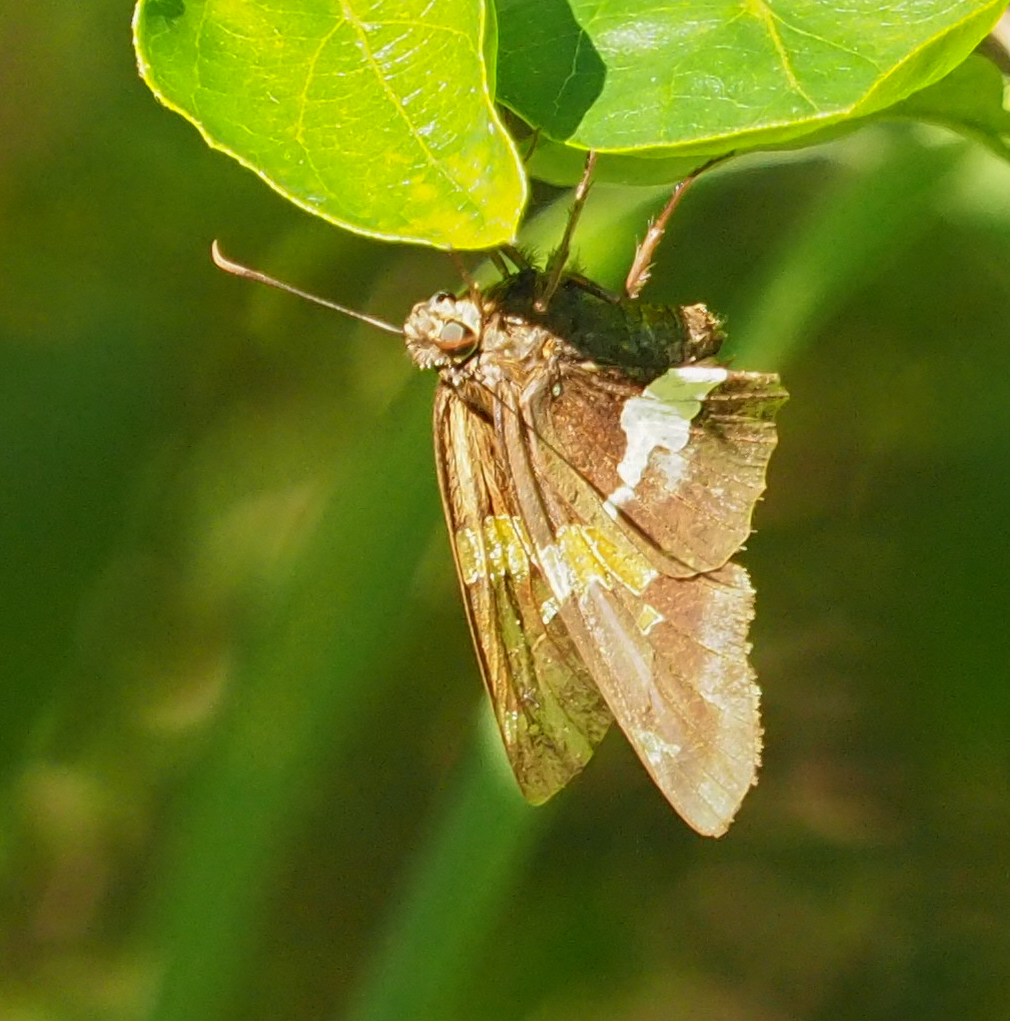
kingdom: Animalia
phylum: Arthropoda
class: Insecta
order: Lepidoptera
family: Hesperiidae
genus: Epargyreus
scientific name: Epargyreus clarus
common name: Silver-spotted skipper
